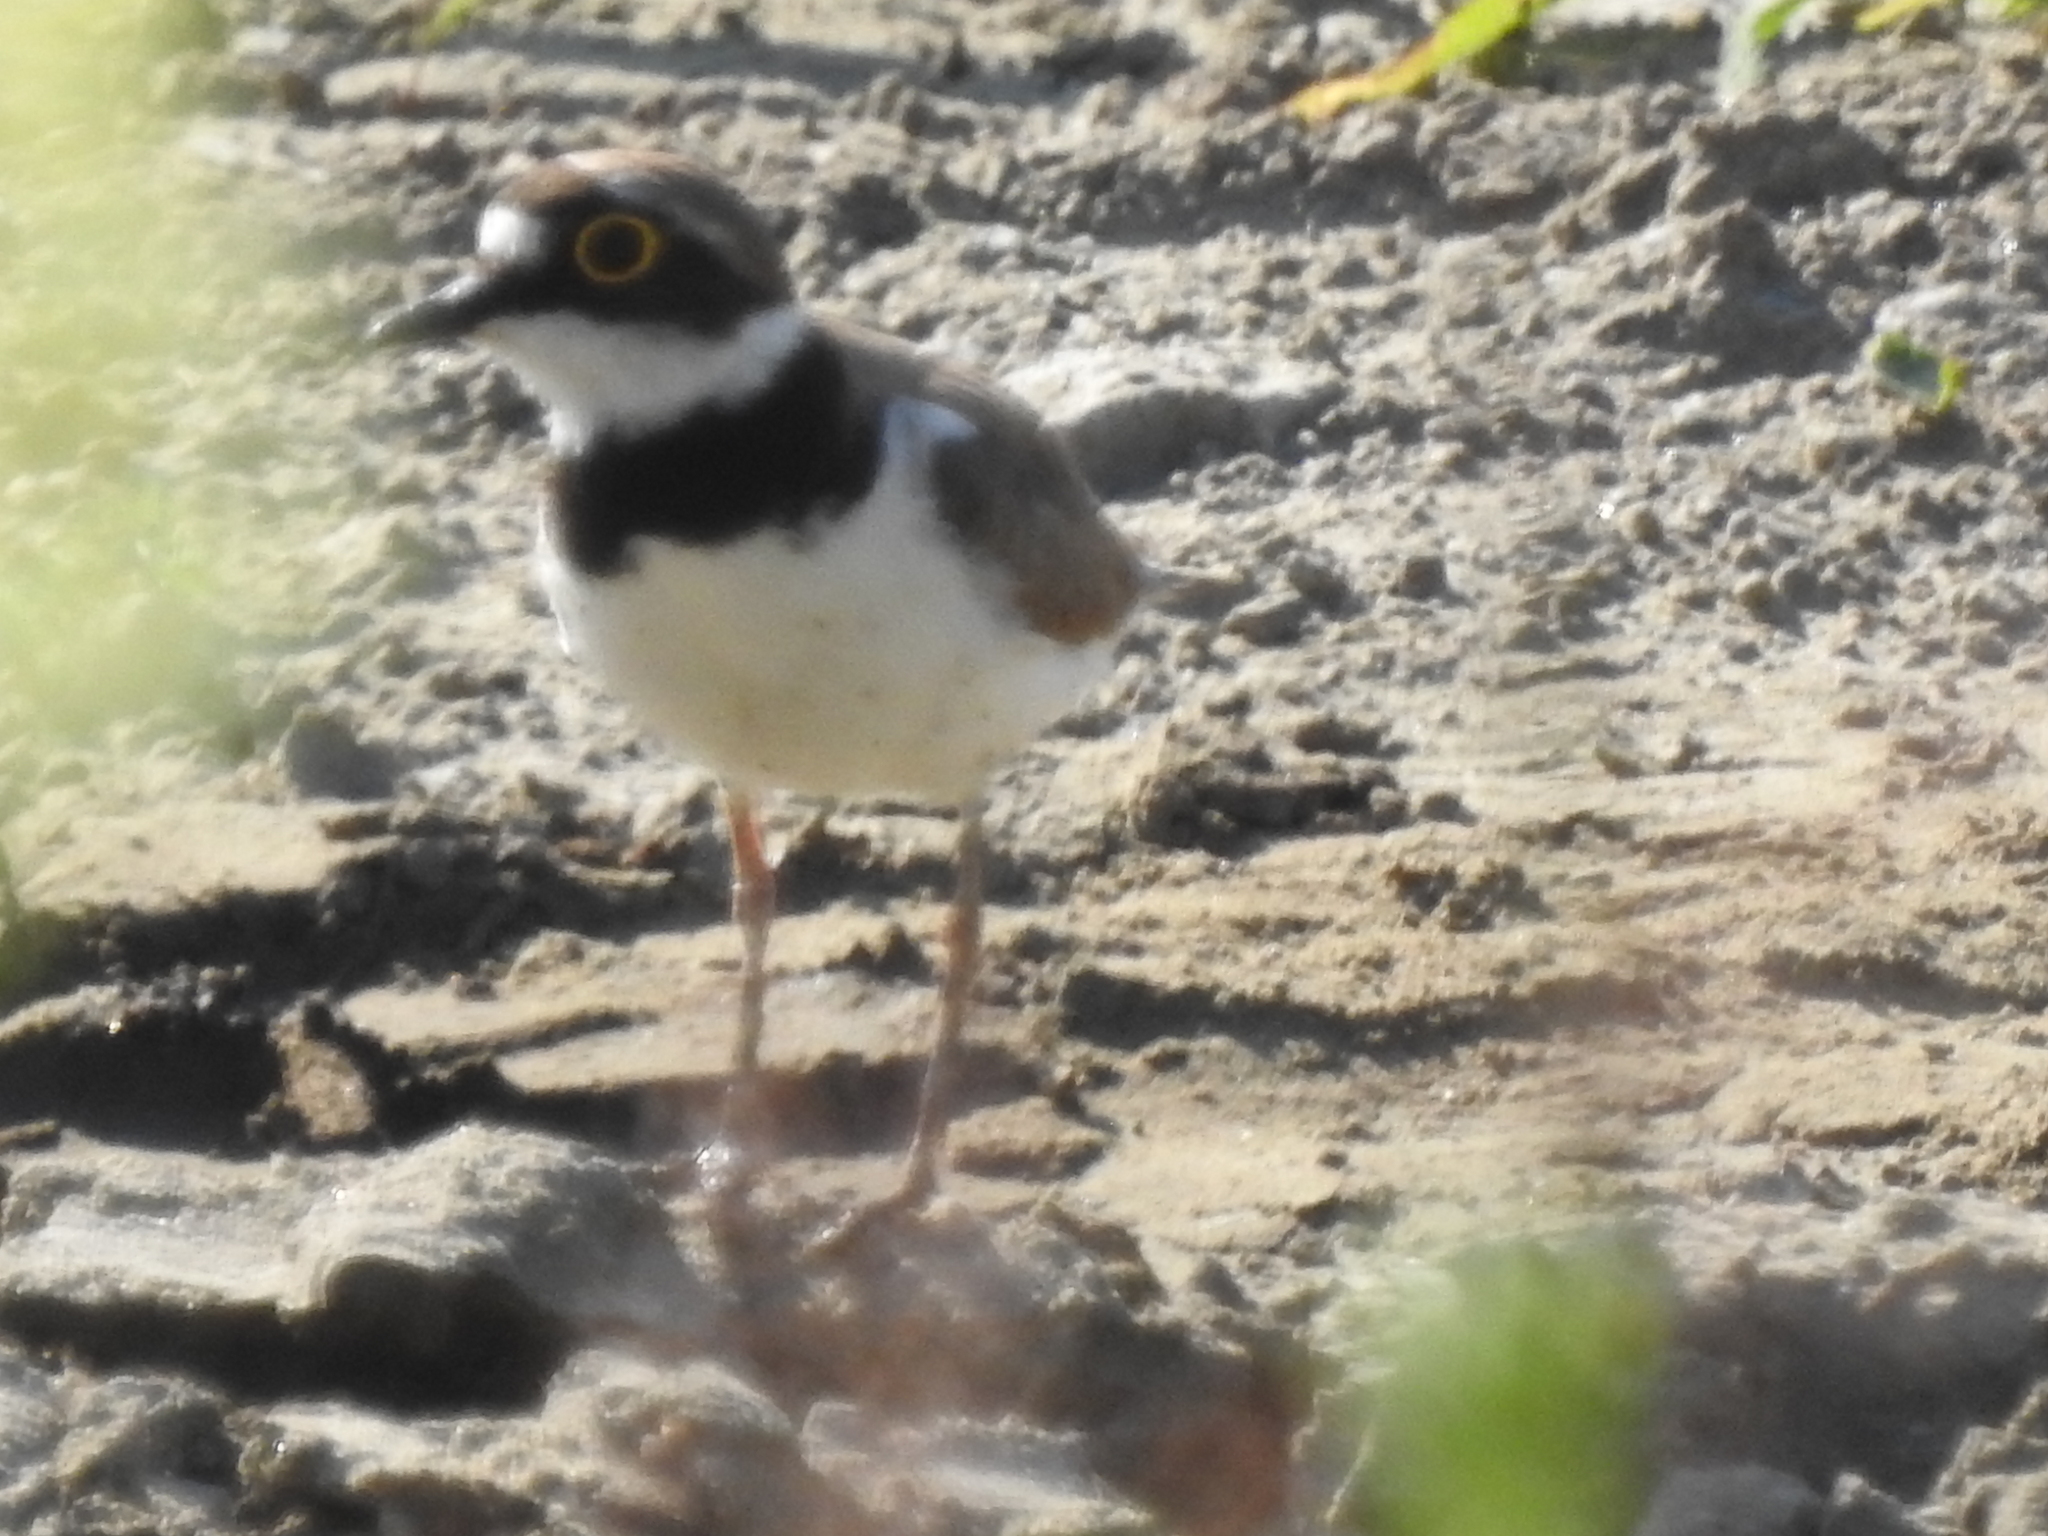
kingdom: Animalia
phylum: Chordata
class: Aves
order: Charadriiformes
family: Charadriidae
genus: Charadrius
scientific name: Charadrius dubius
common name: Little ringed plover
